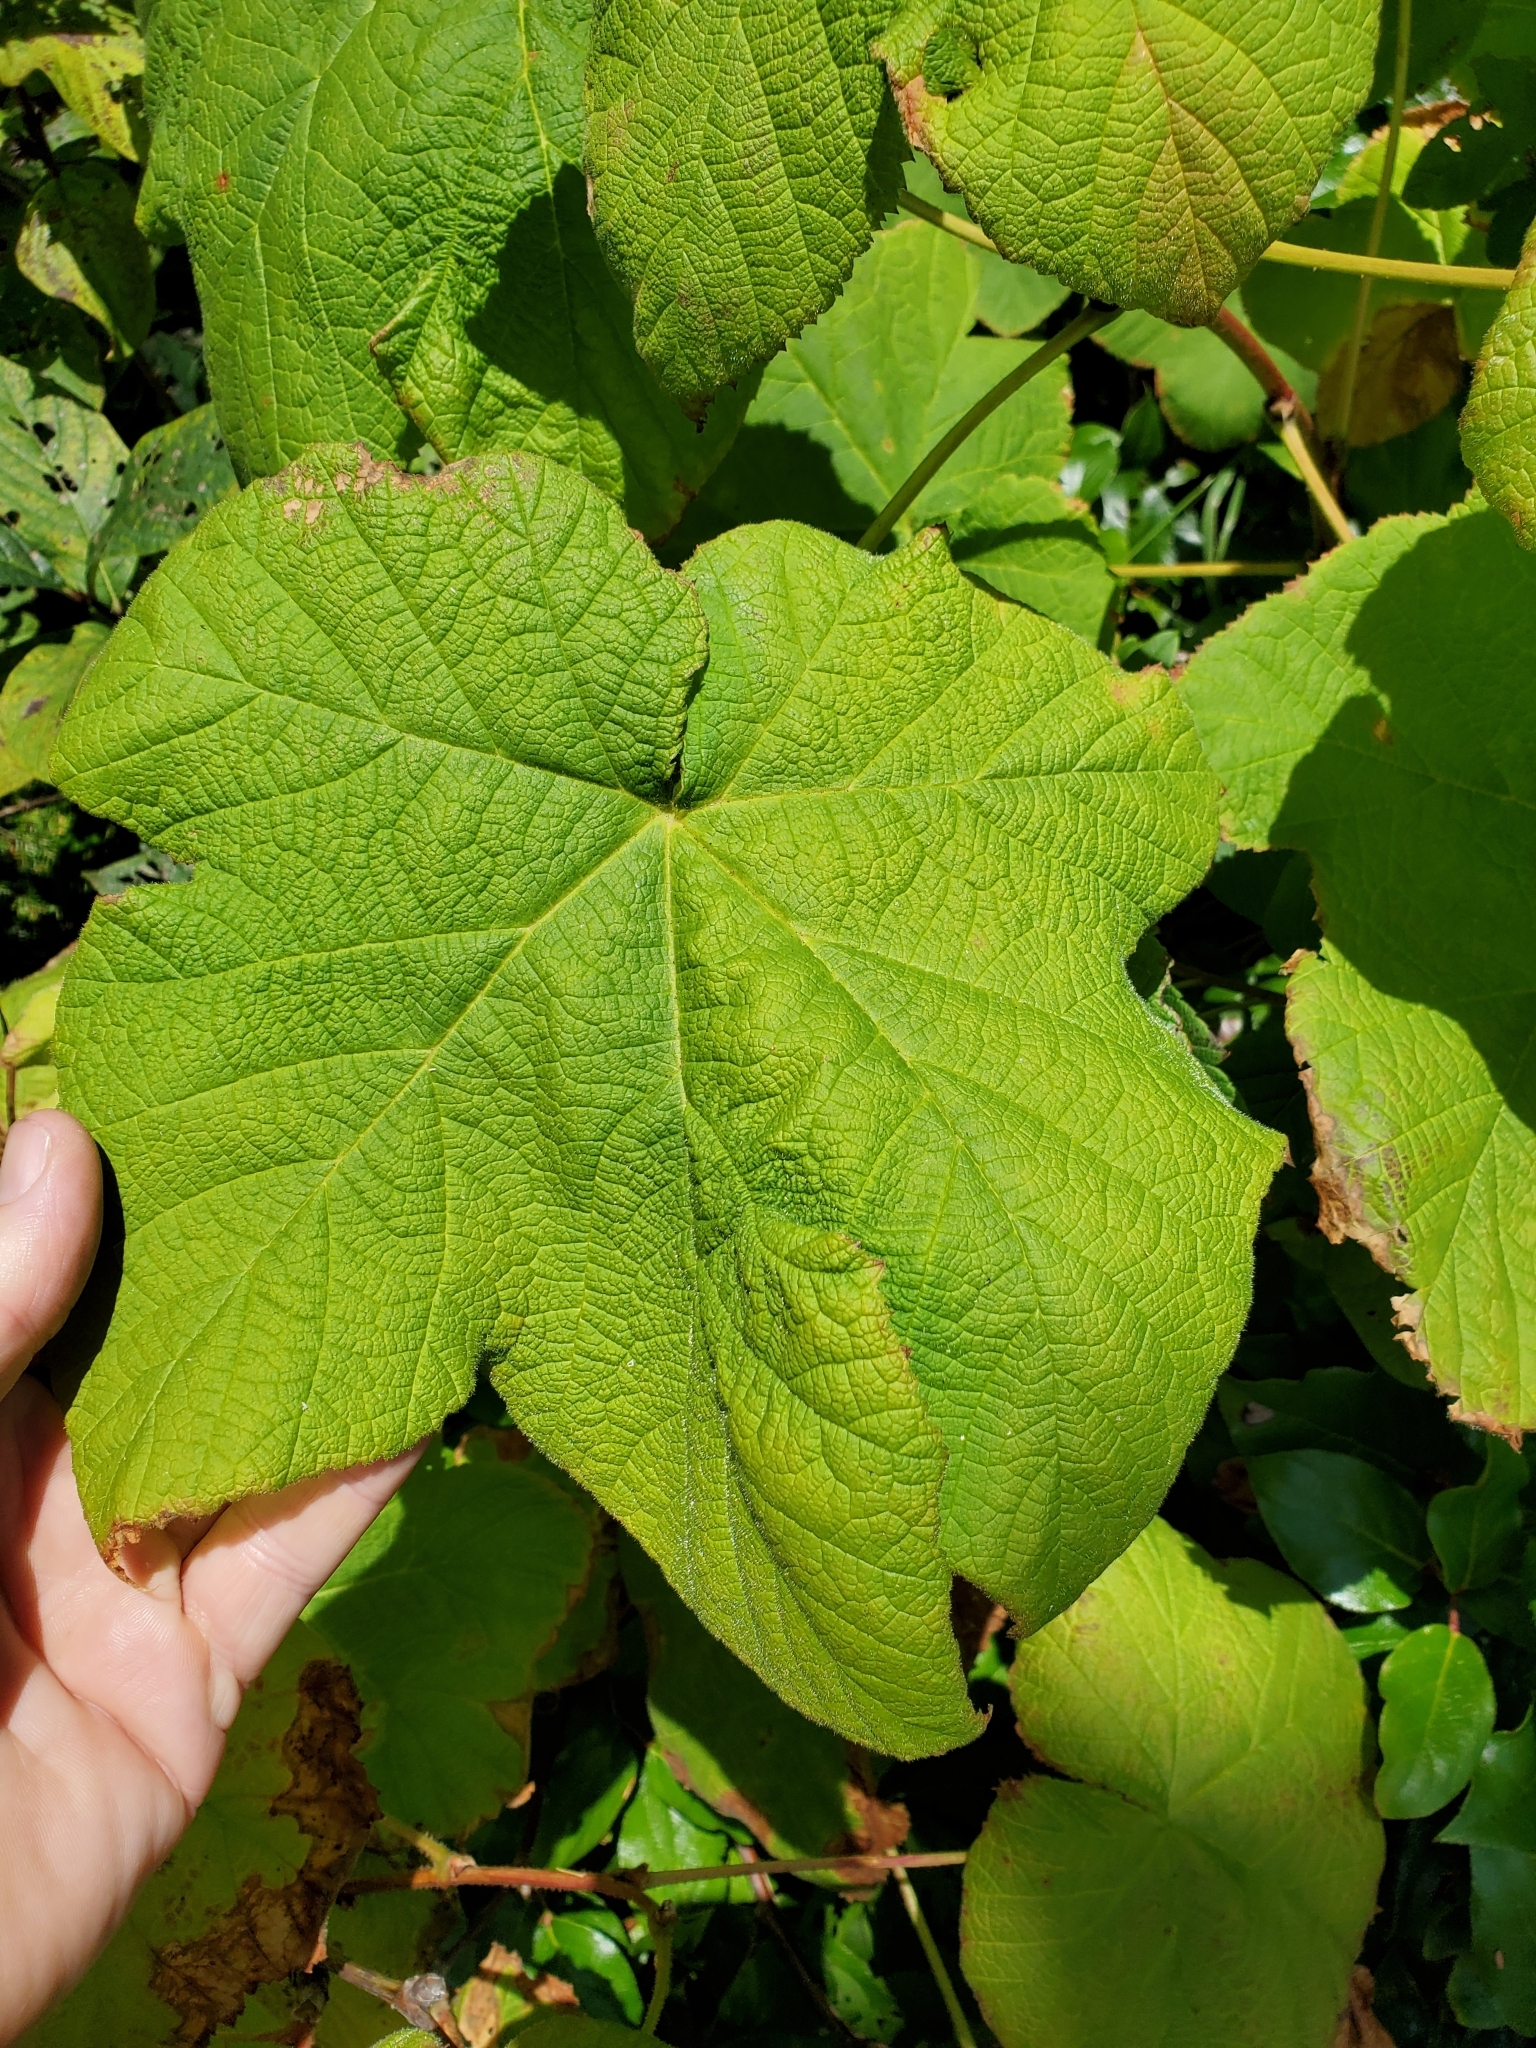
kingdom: Plantae
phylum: Tracheophyta
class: Magnoliopsida
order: Rosales
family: Rosaceae
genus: Rubus
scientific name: Rubus parviflorus
